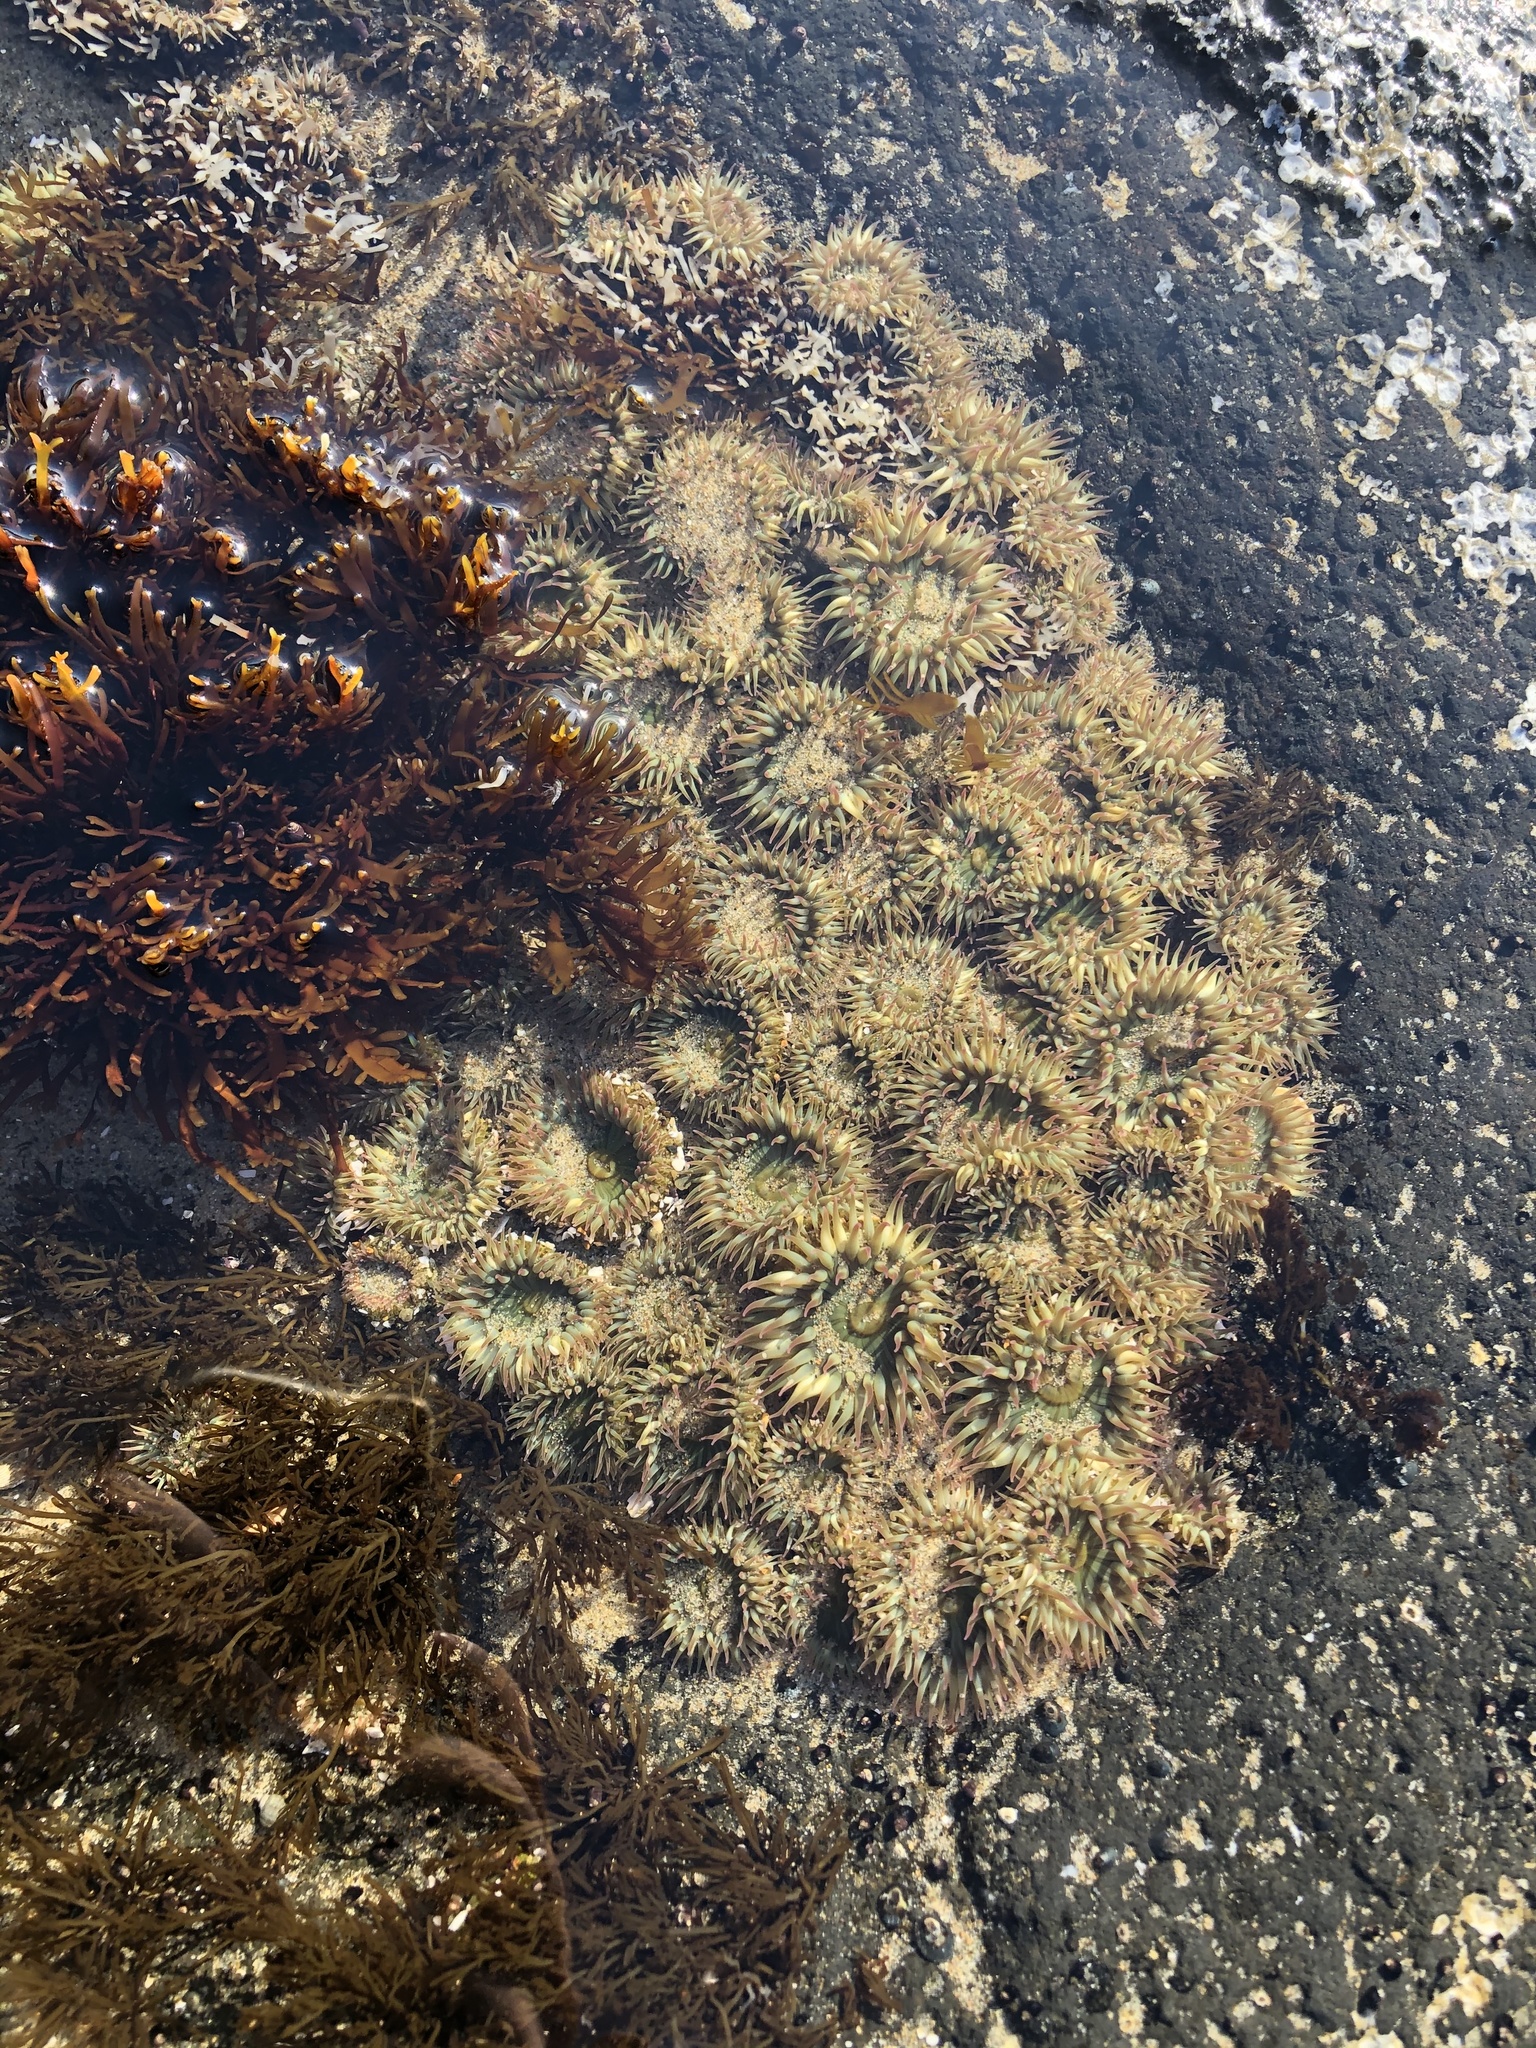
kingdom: Animalia
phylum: Cnidaria
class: Anthozoa
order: Actiniaria
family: Actiniidae
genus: Anthopleura
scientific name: Anthopleura elegantissima
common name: Clonal anemone
